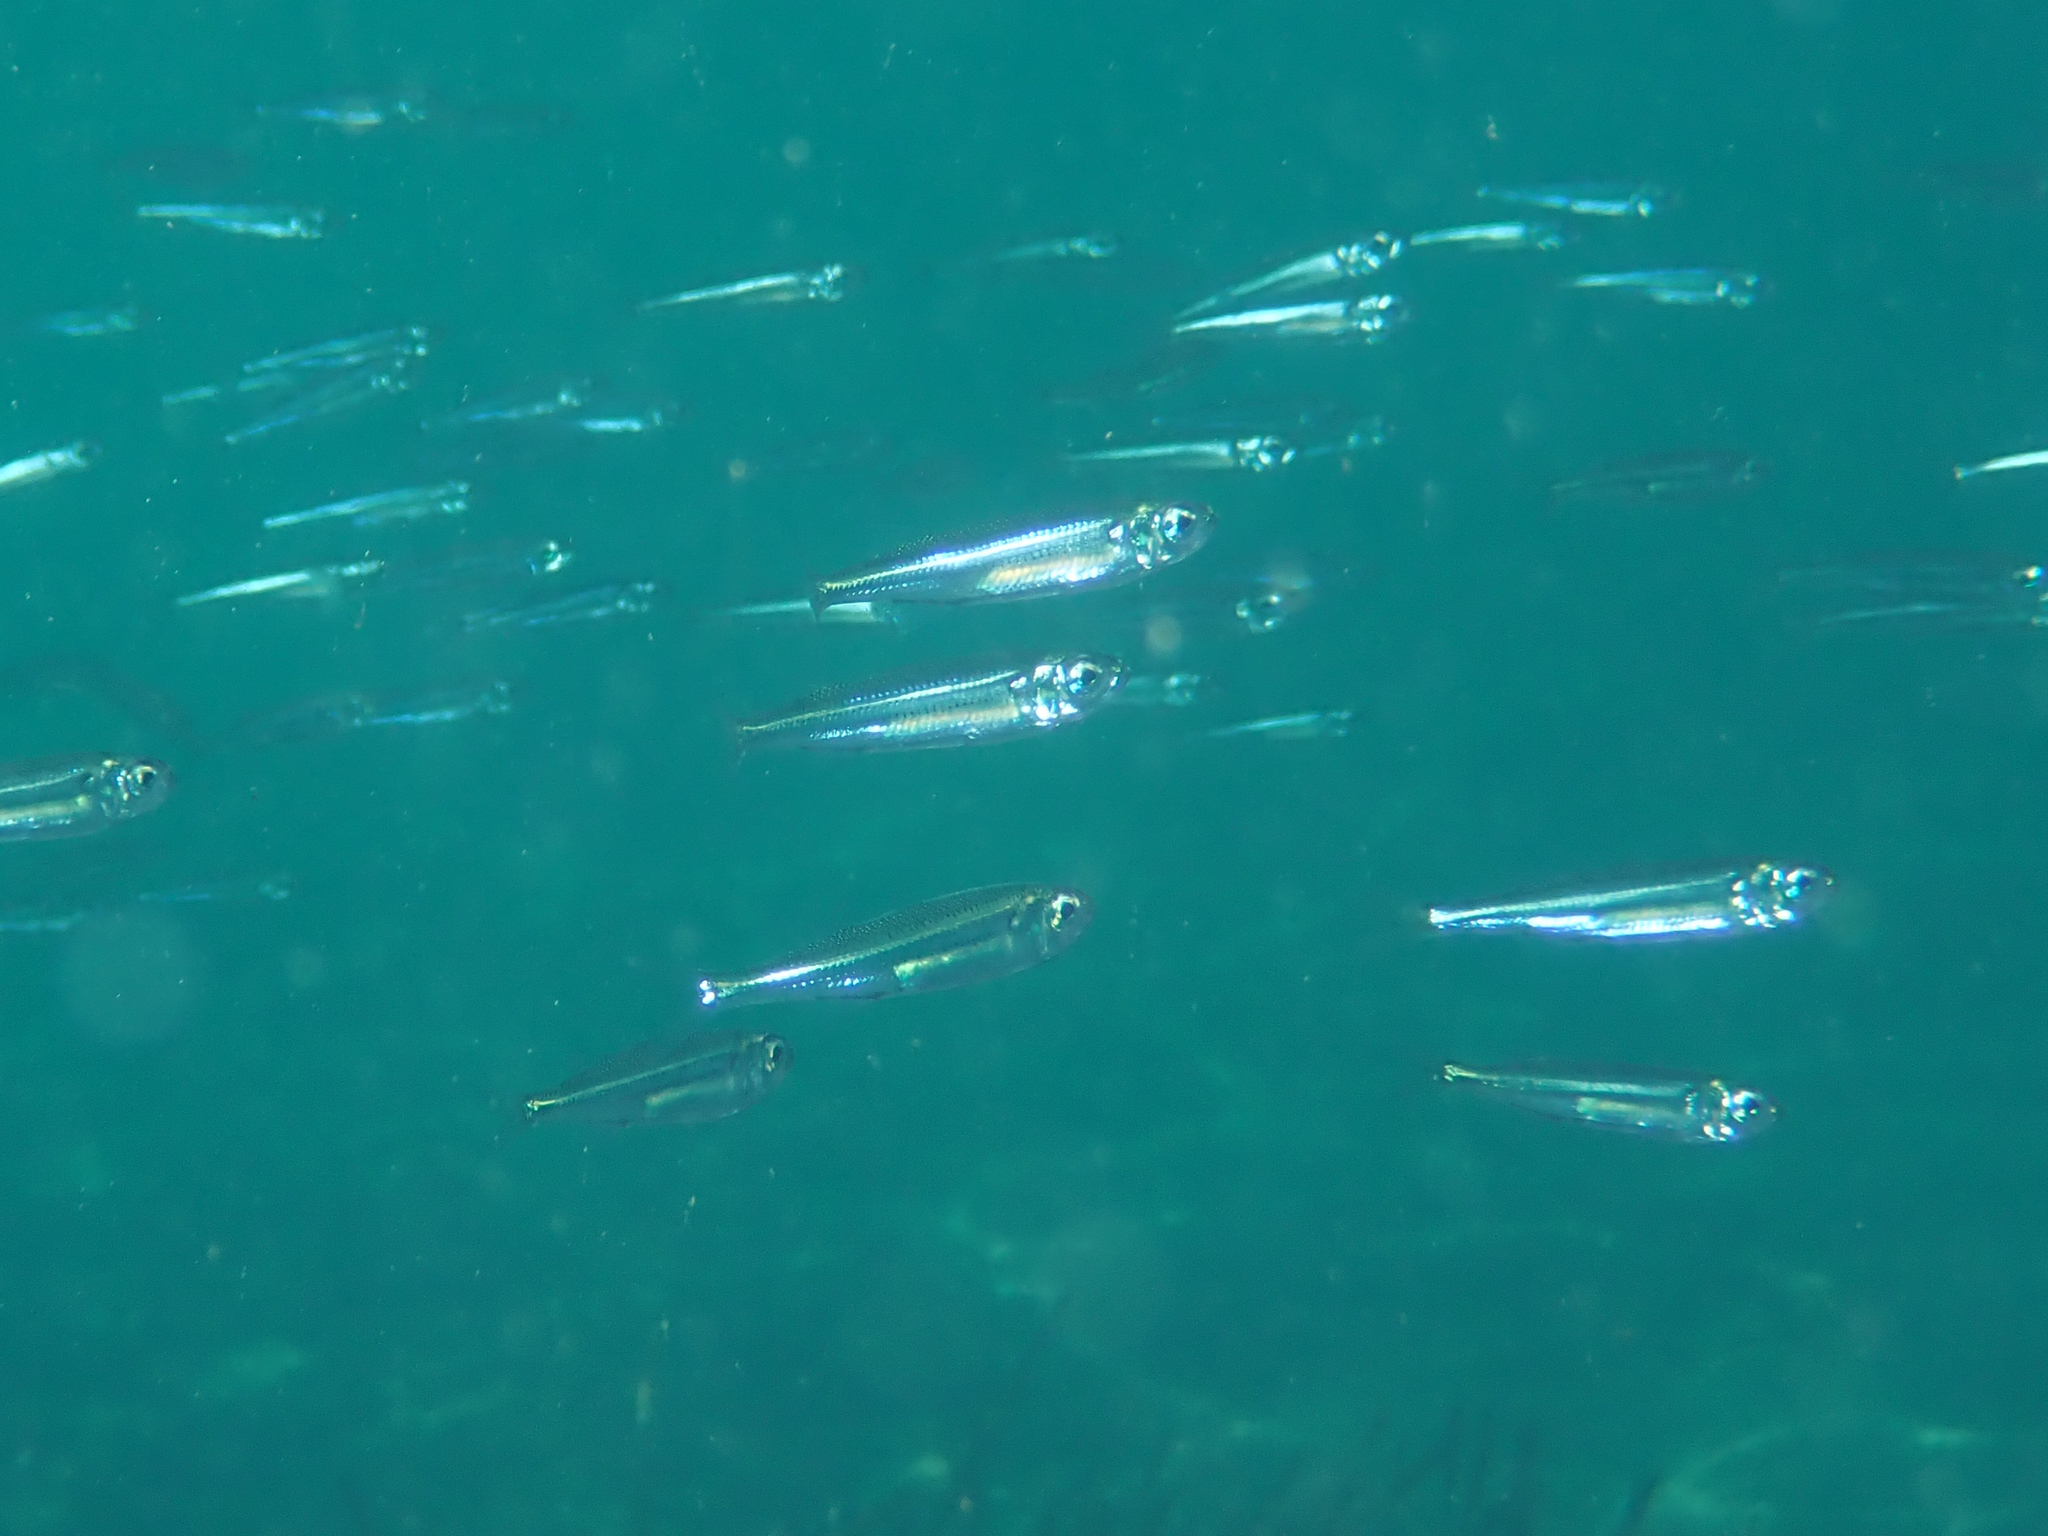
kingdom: Animalia
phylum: Chordata
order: Atheriniformes
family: Atherinidae
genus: Atherina
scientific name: Atherina boyeri
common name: Big-scale sand smelt
